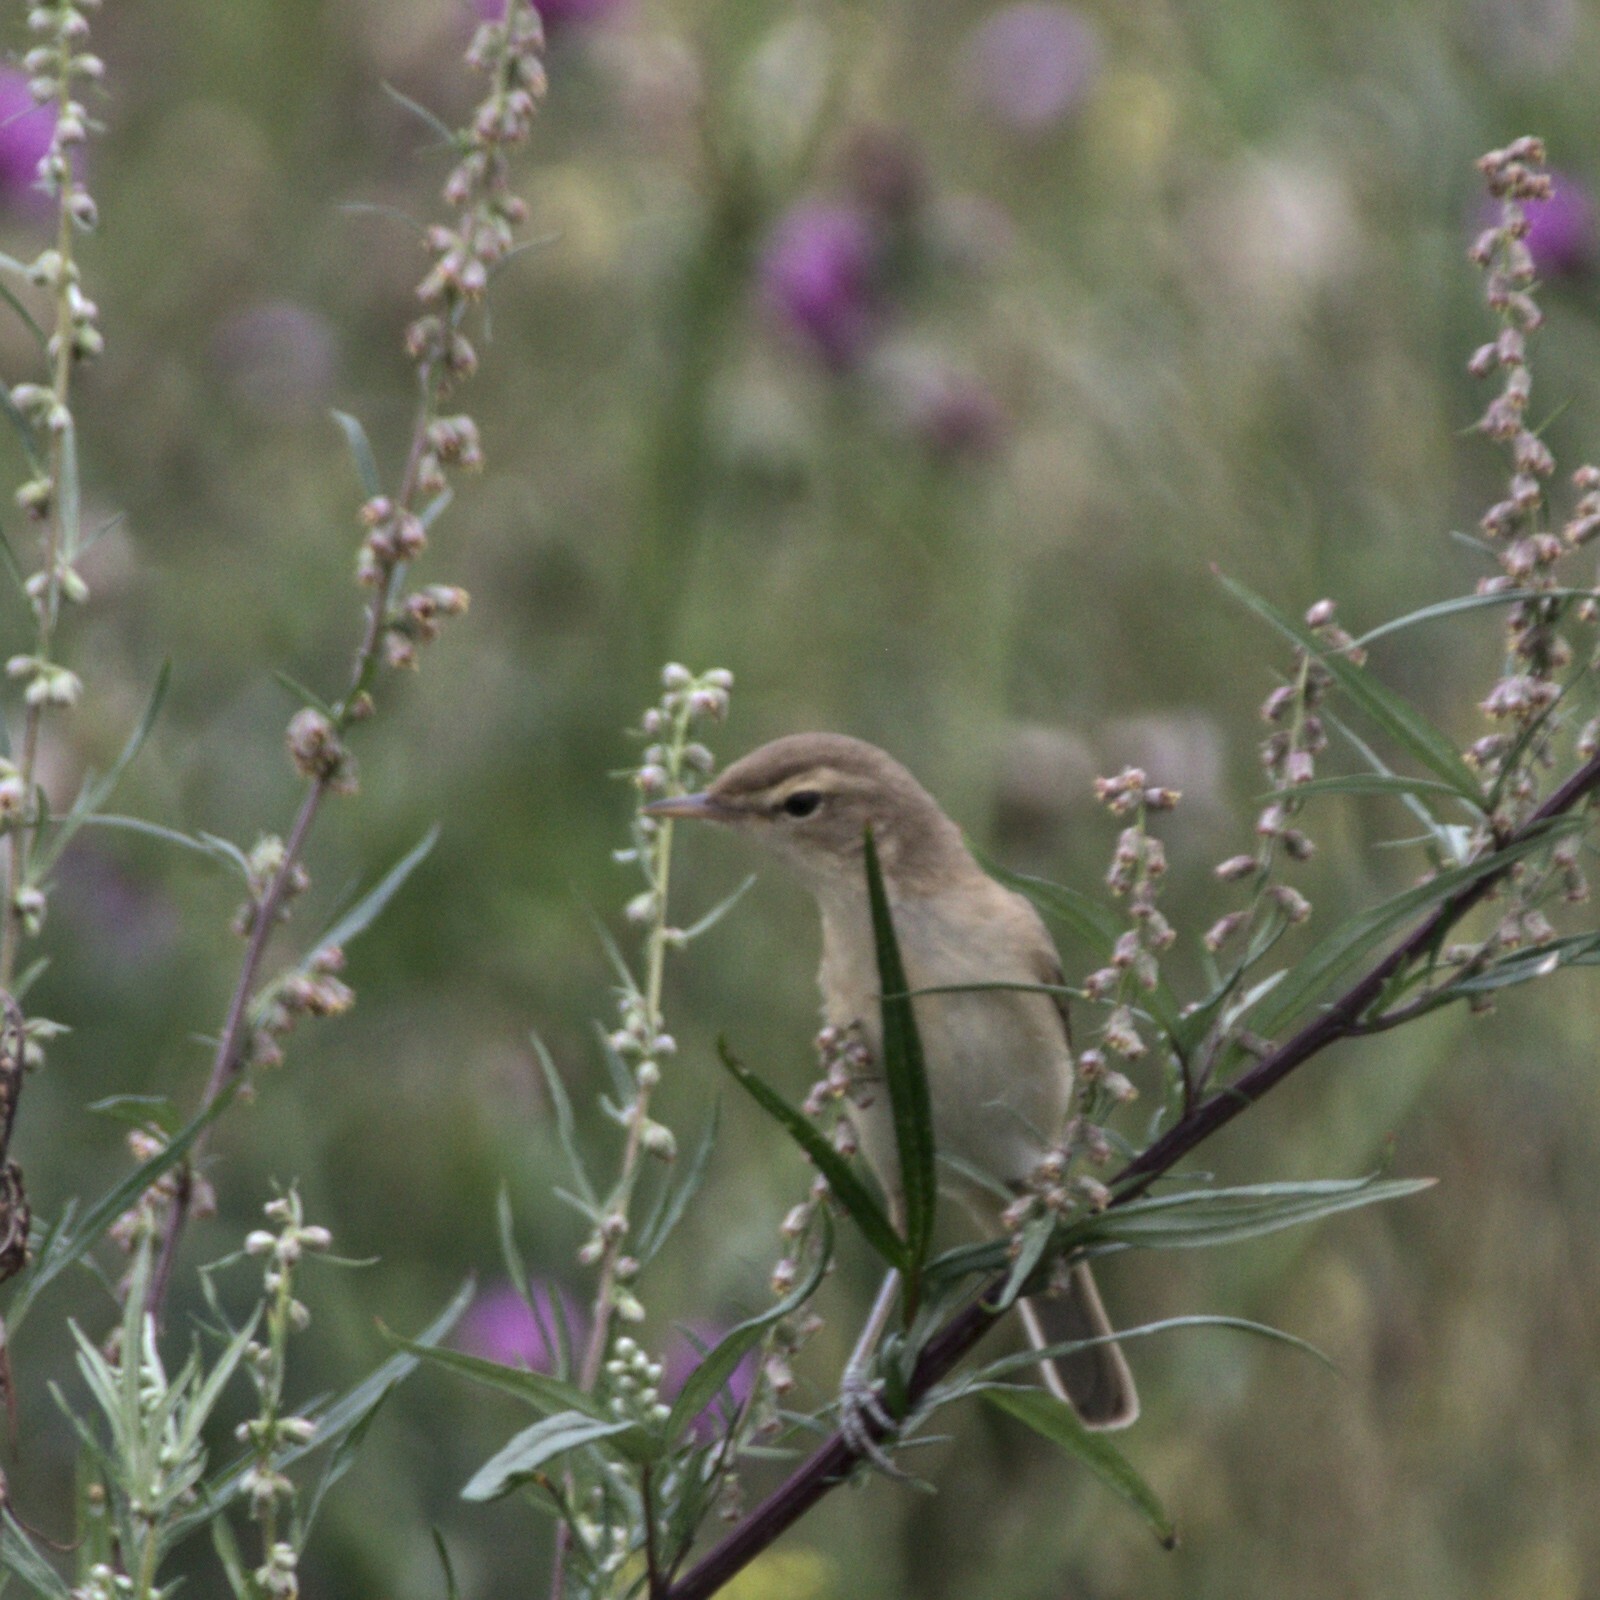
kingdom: Animalia
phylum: Chordata
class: Aves
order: Passeriformes
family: Acrocephalidae
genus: Iduna
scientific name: Iduna caligata
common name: Booted warbler
